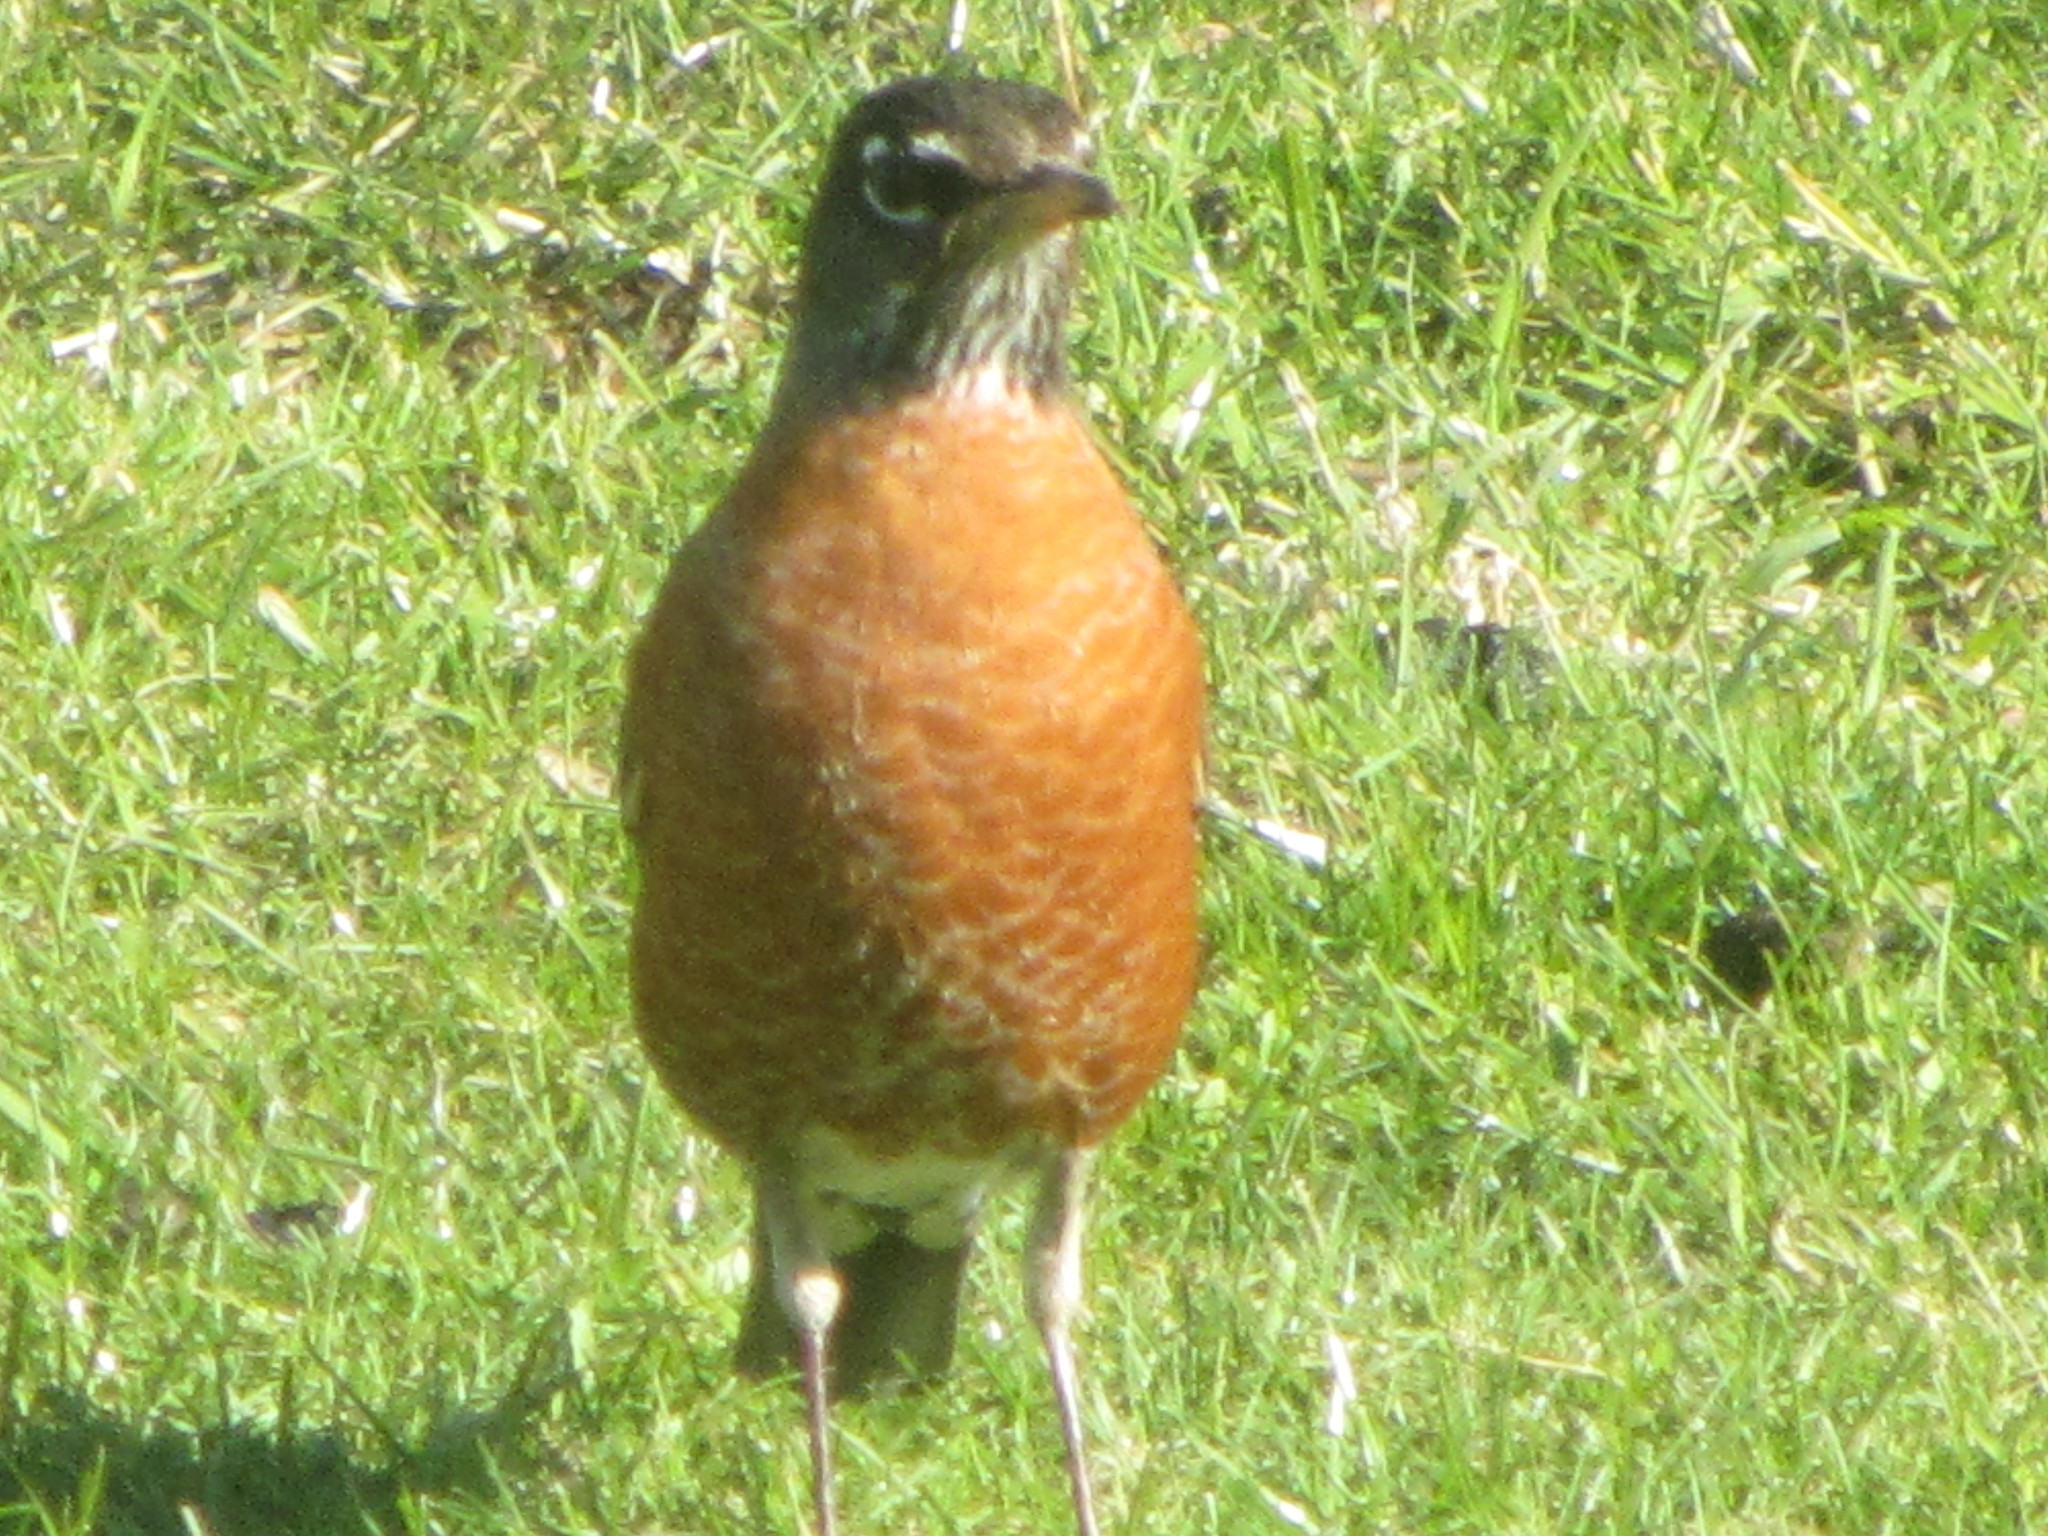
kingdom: Animalia
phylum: Chordata
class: Aves
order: Passeriformes
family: Turdidae
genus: Turdus
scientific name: Turdus migratorius
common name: American robin
